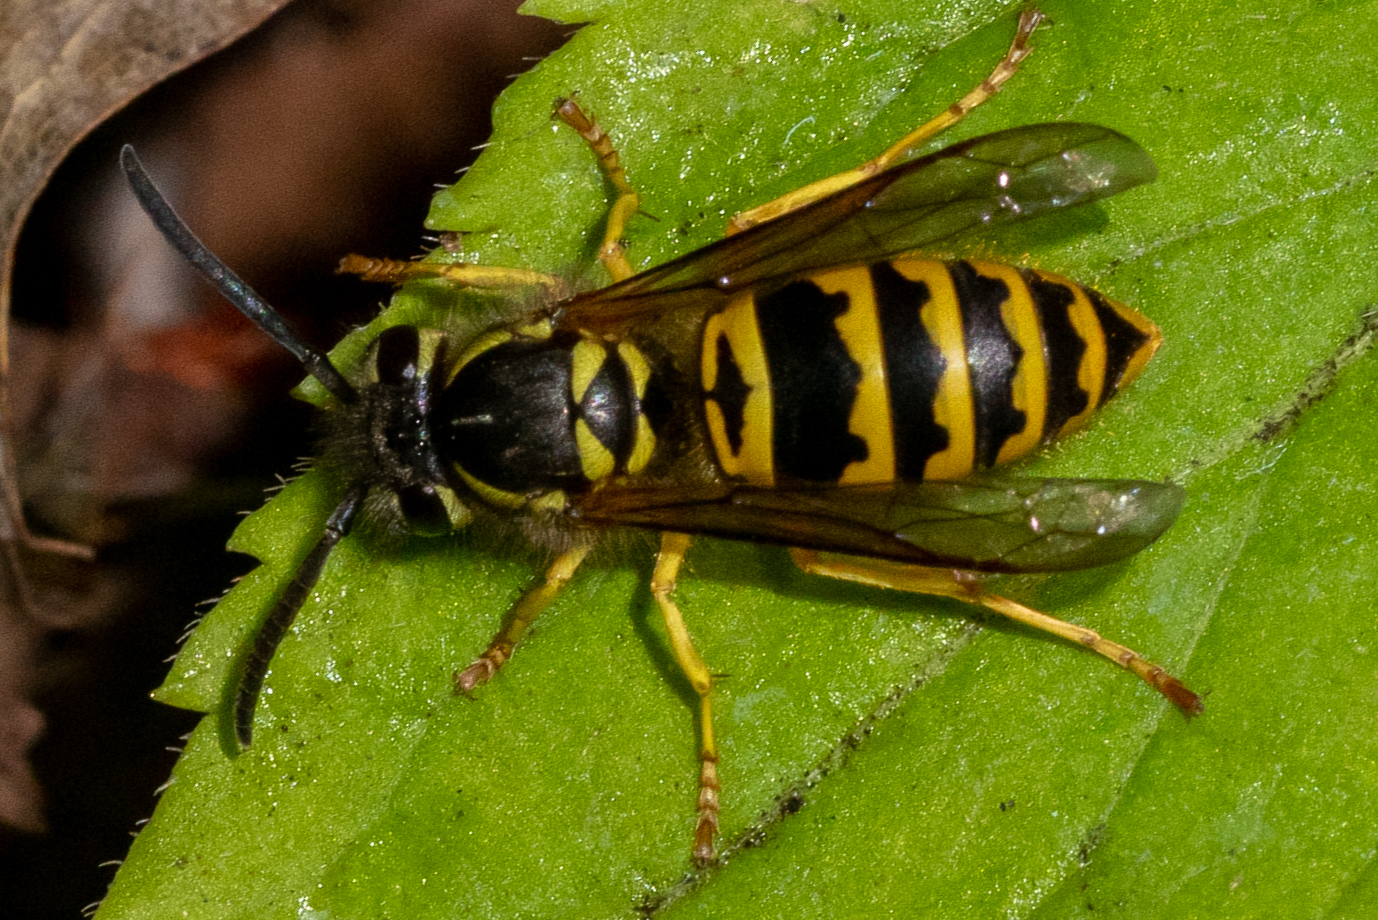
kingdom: Animalia
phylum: Arthropoda
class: Insecta
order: Hymenoptera
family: Vespidae
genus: Vespula
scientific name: Vespula maculifrons
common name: Eastern yellowjacket
